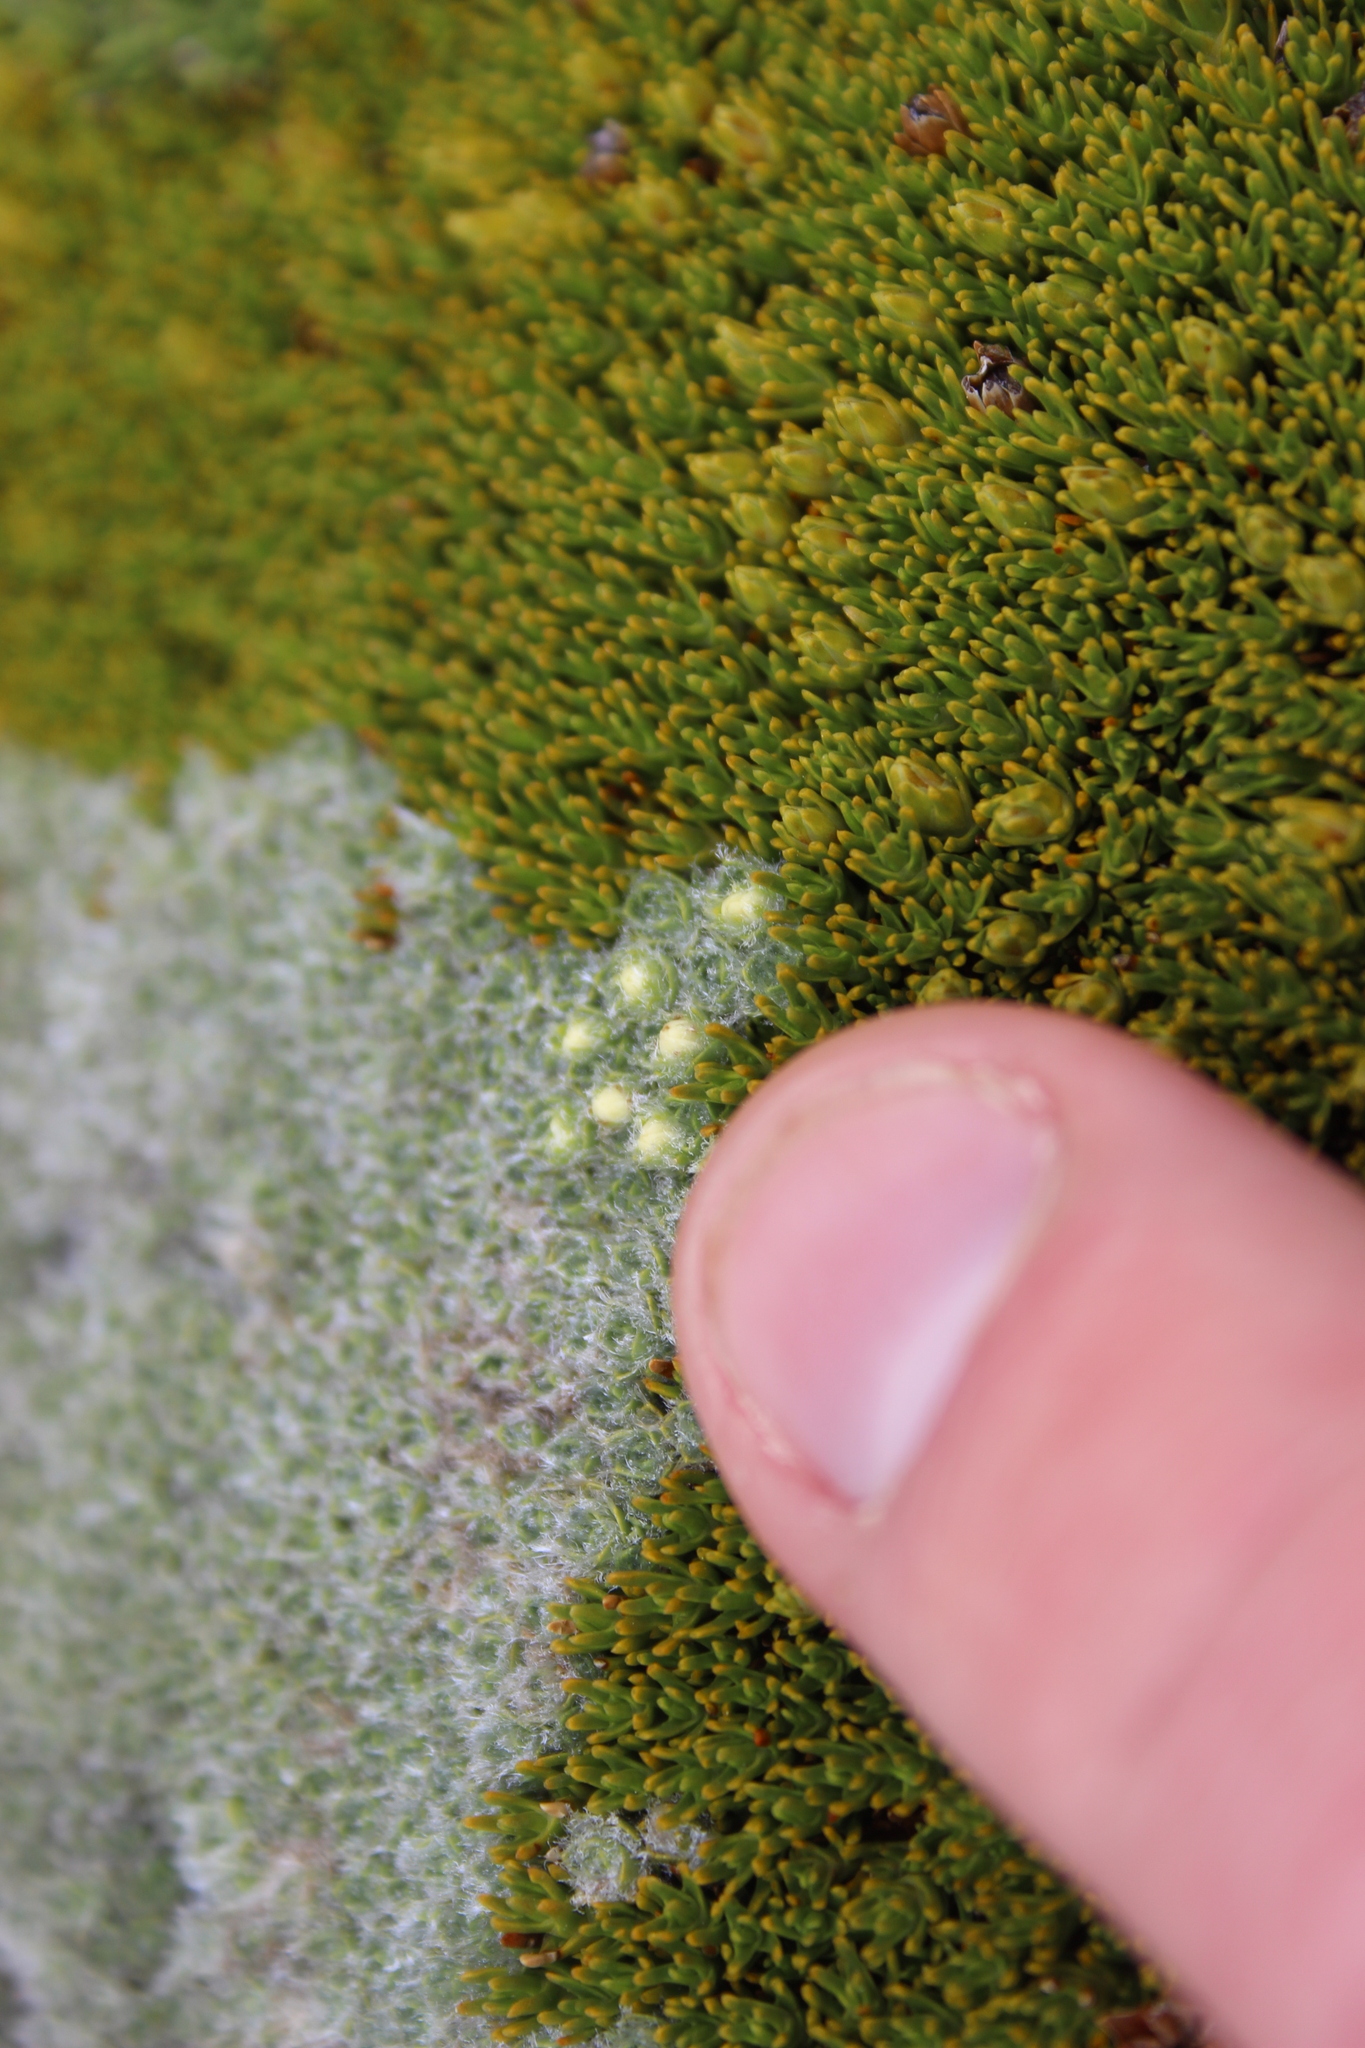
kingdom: Plantae
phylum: Tracheophyta
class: Magnoliopsida
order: Lamiales
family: Plantaginaceae
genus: Veronica
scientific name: Veronica thomsonii
